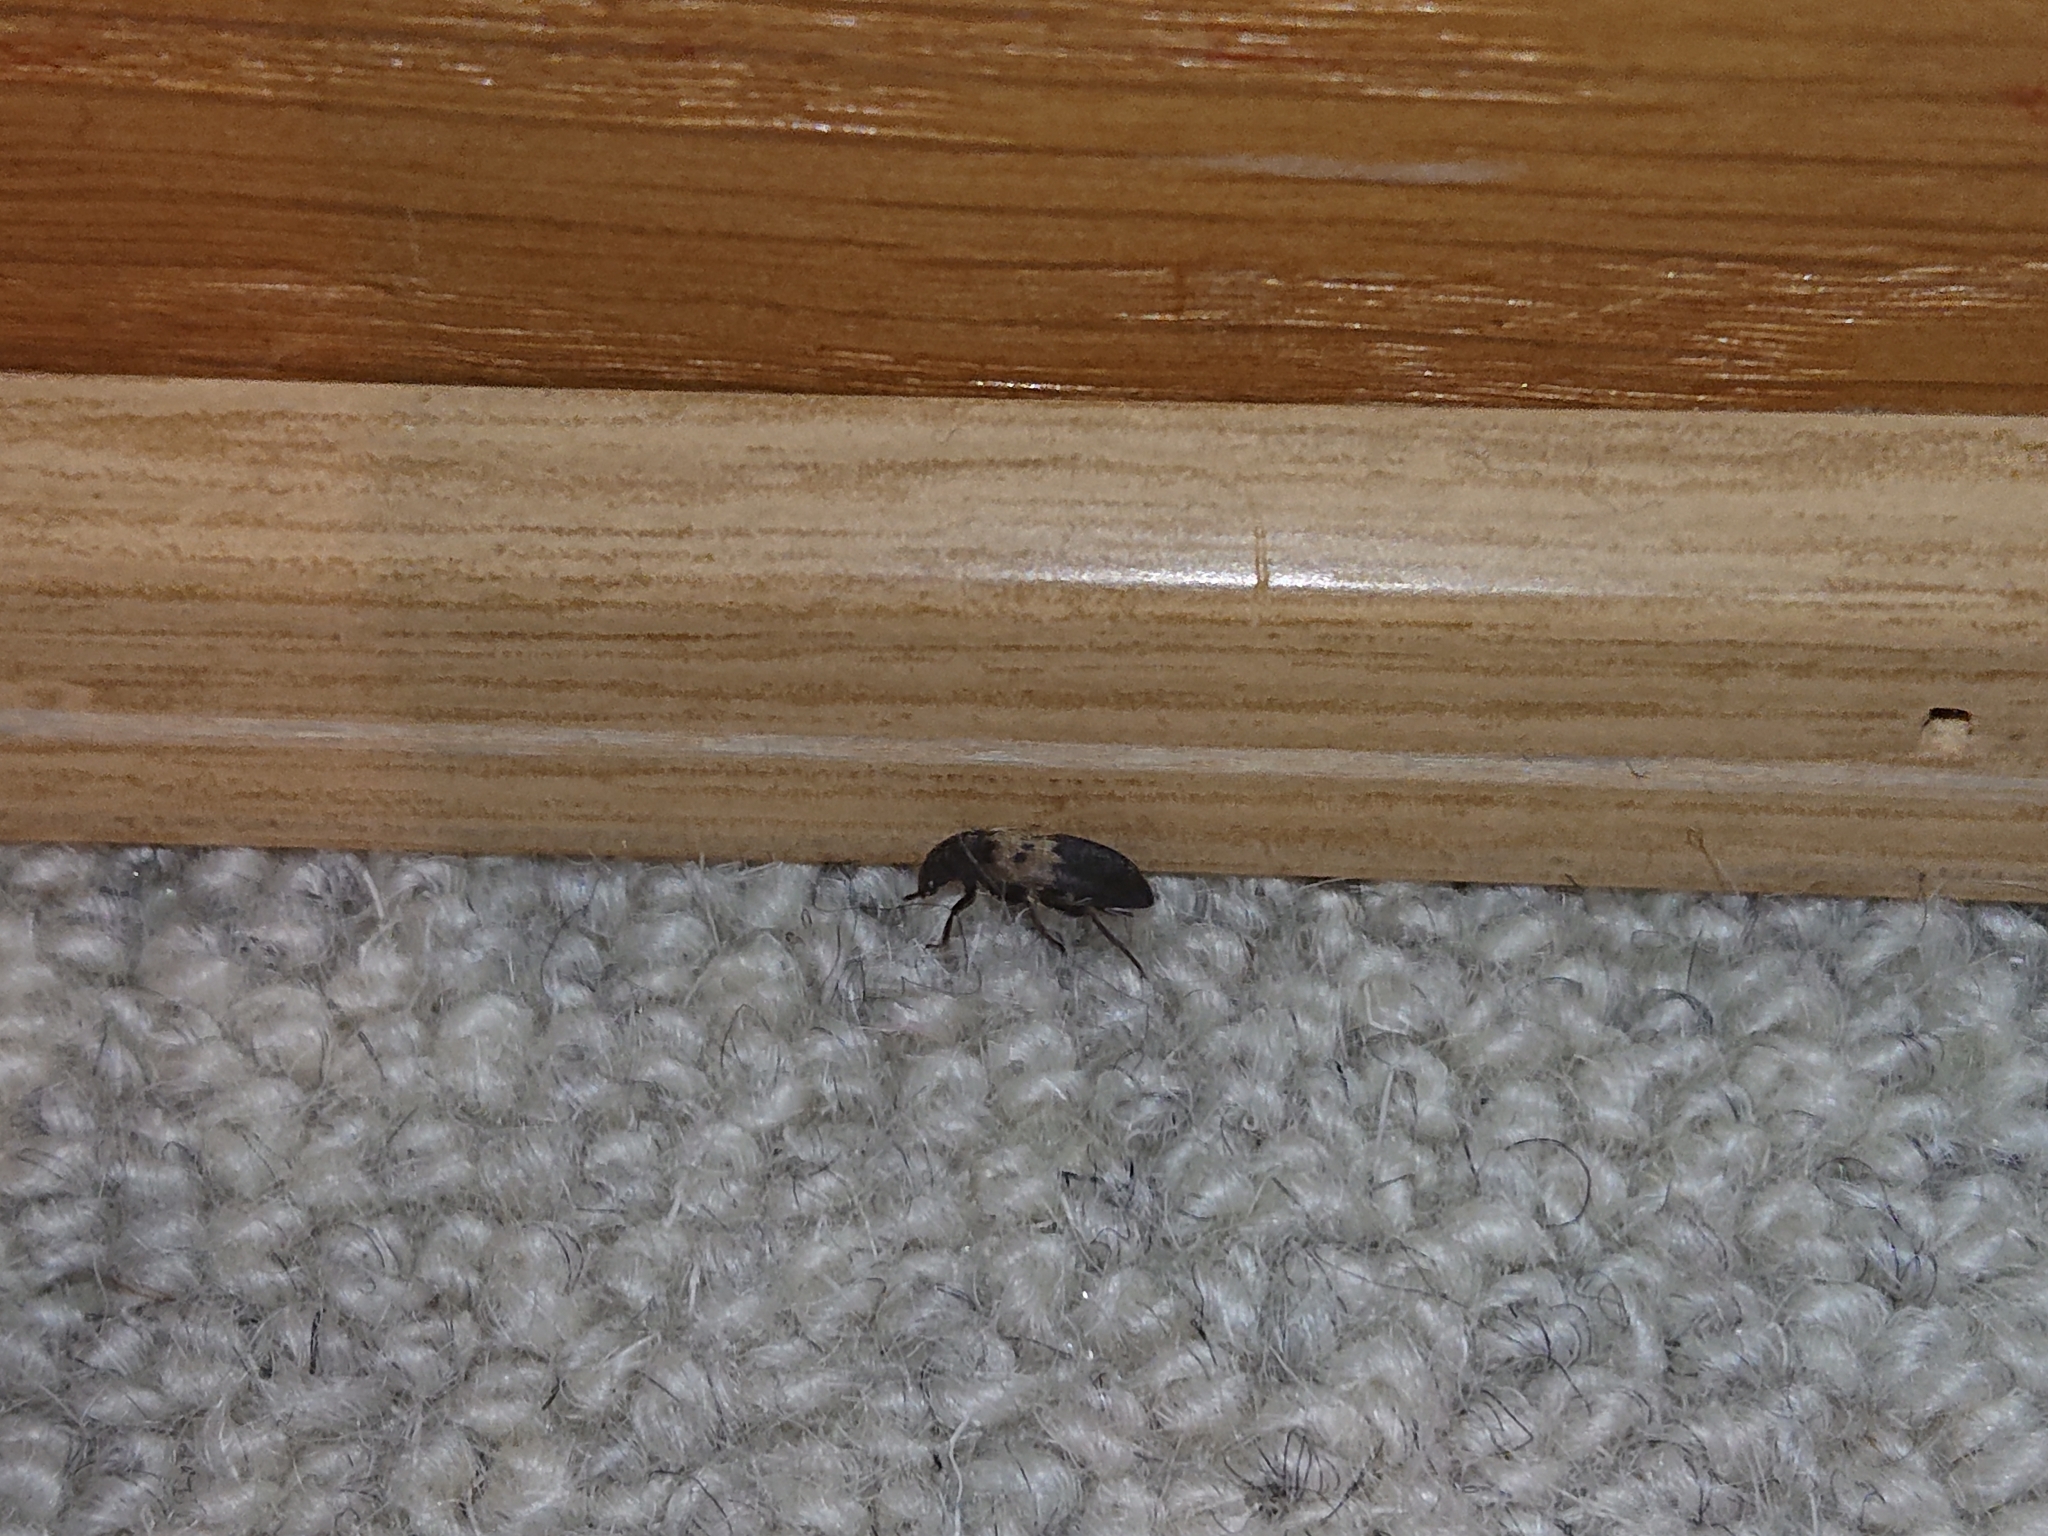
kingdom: Animalia
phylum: Arthropoda
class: Insecta
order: Coleoptera
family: Dermestidae
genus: Dermestes
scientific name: Dermestes lardarius
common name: Larder beetle
